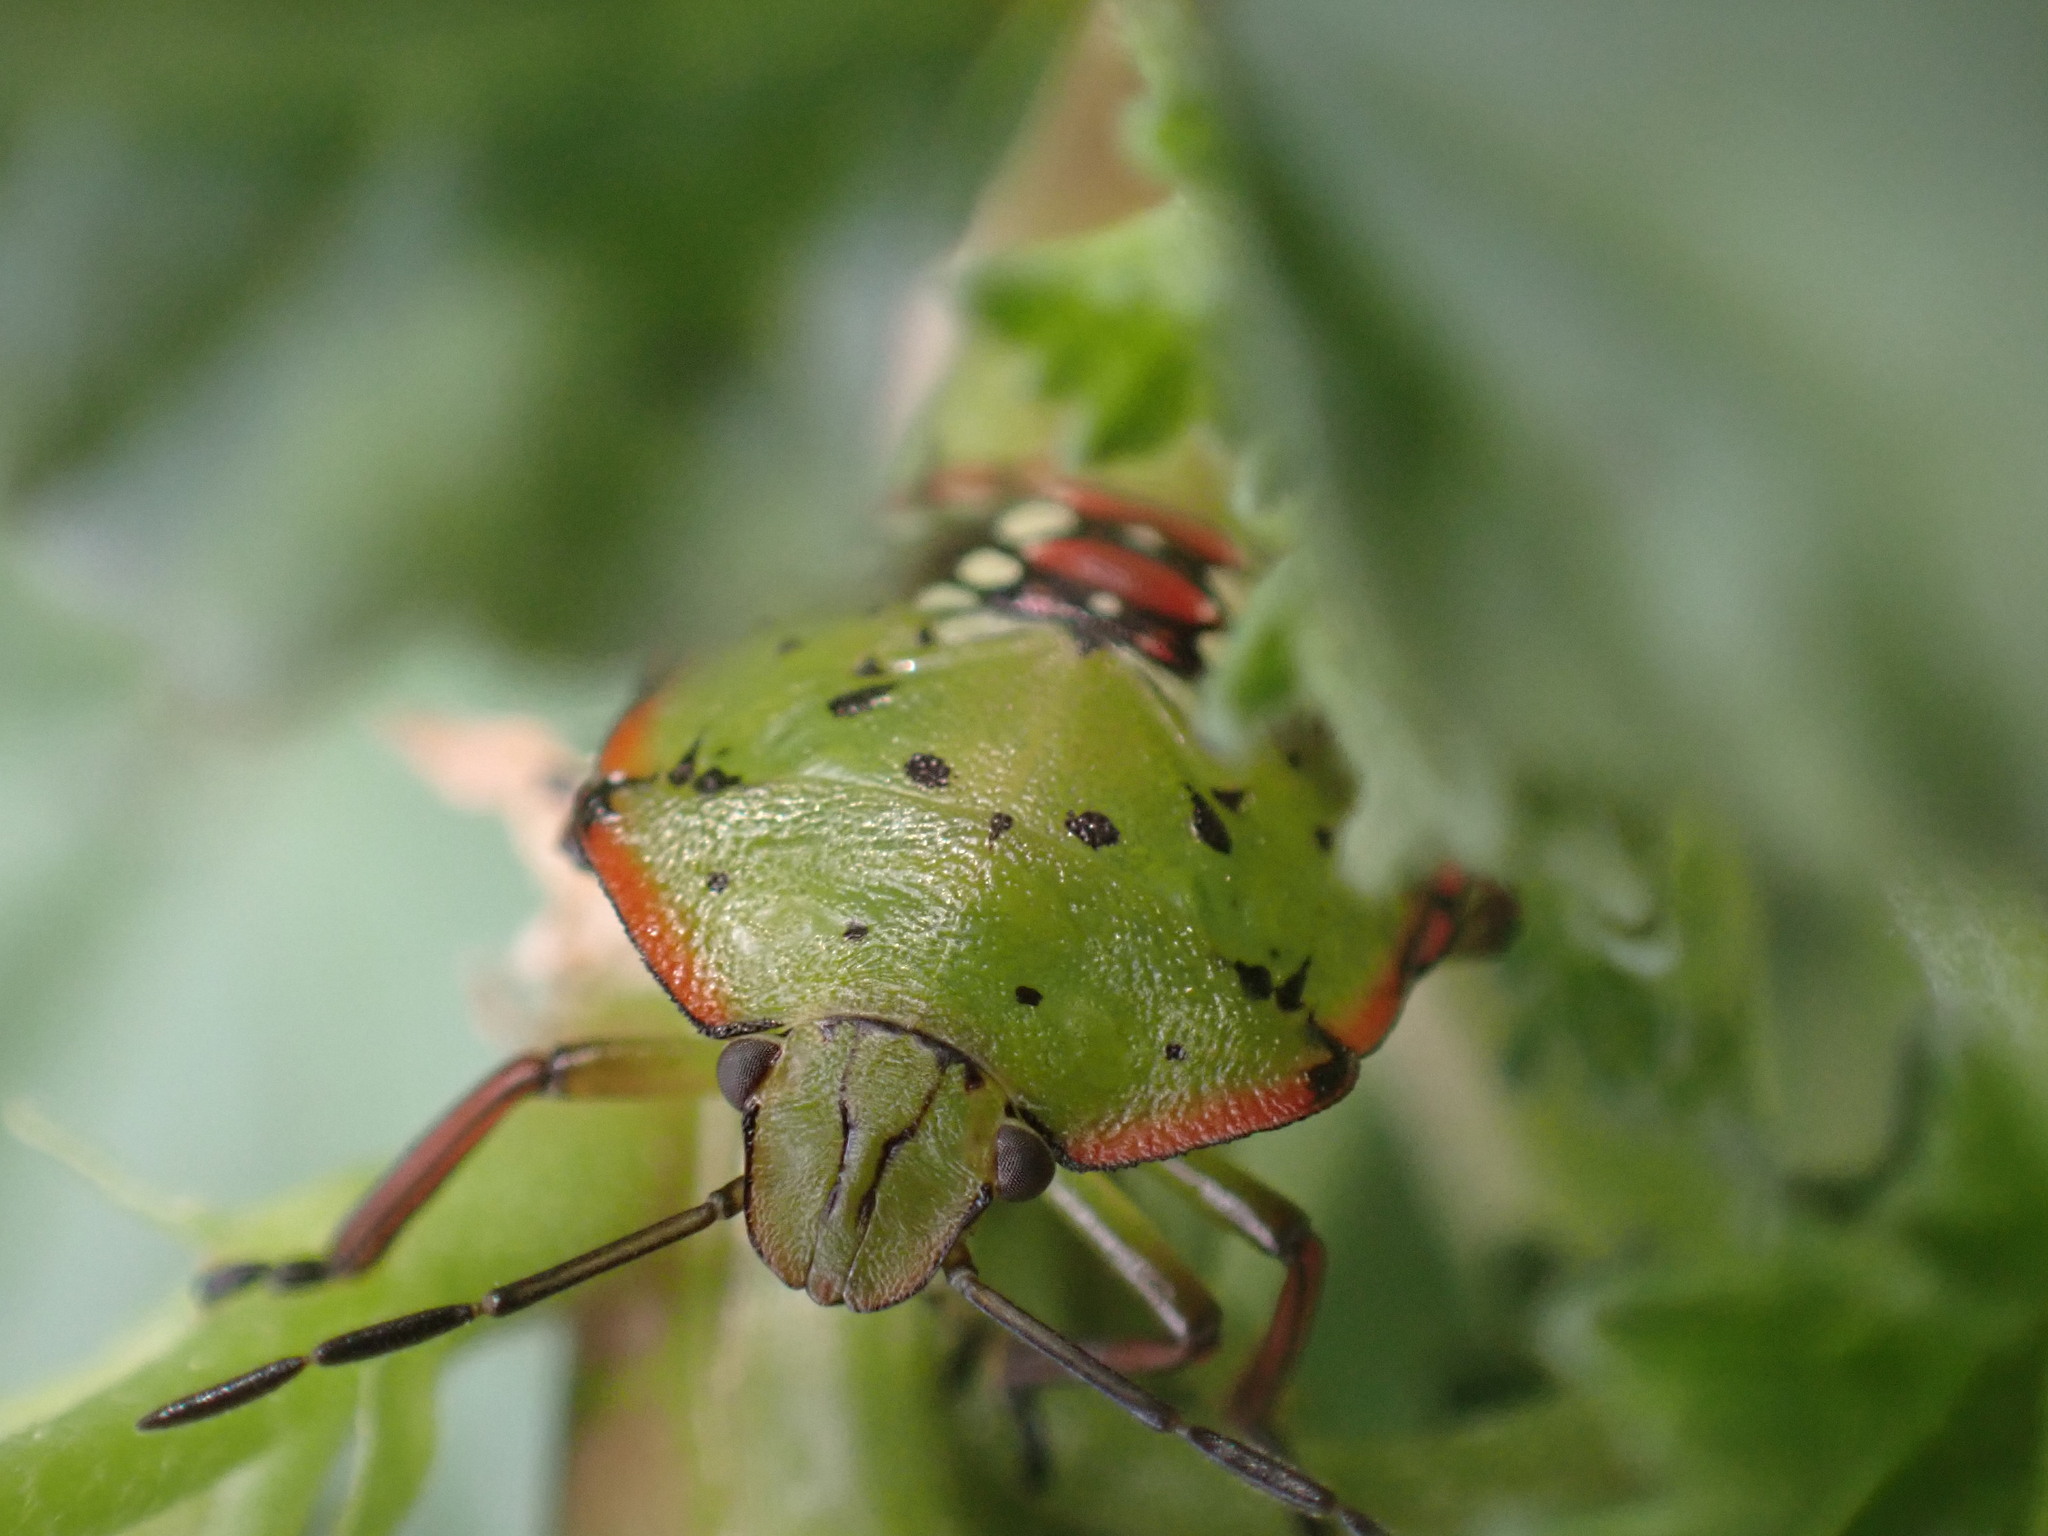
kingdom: Animalia
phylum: Arthropoda
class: Insecta
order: Hemiptera
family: Pentatomidae
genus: Nezara
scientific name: Nezara viridula
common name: Southern green stink bug
